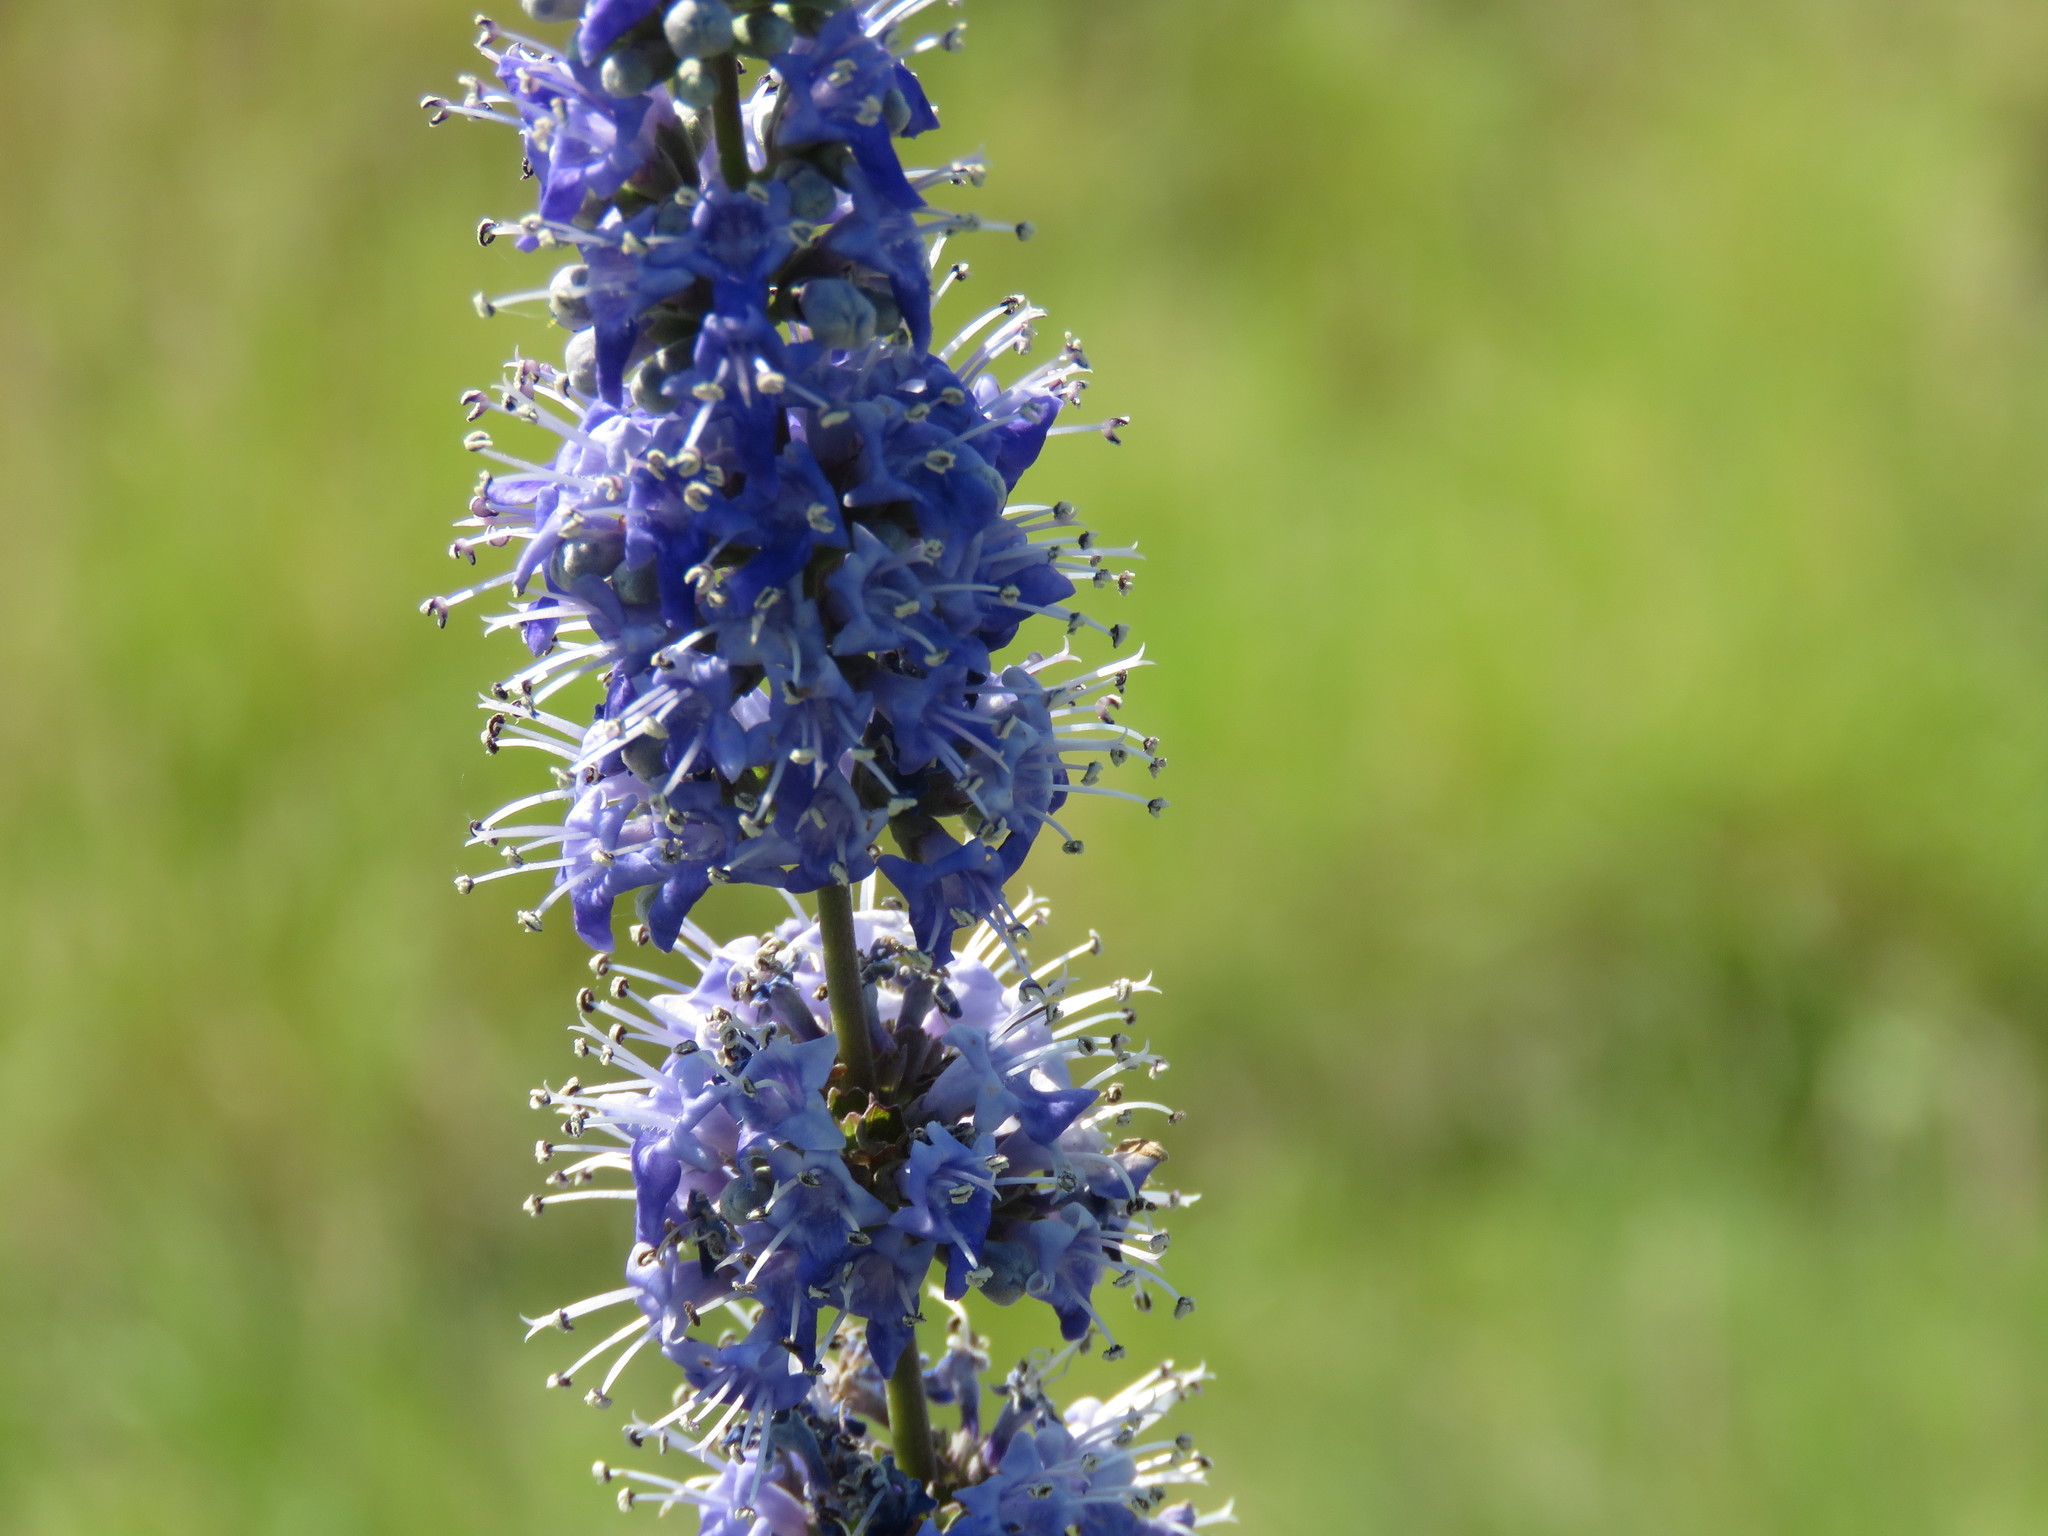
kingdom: Plantae
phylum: Tracheophyta
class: Magnoliopsida
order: Lamiales
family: Lamiaceae
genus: Vitex
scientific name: Vitex agnus-castus
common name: Chasteberry
